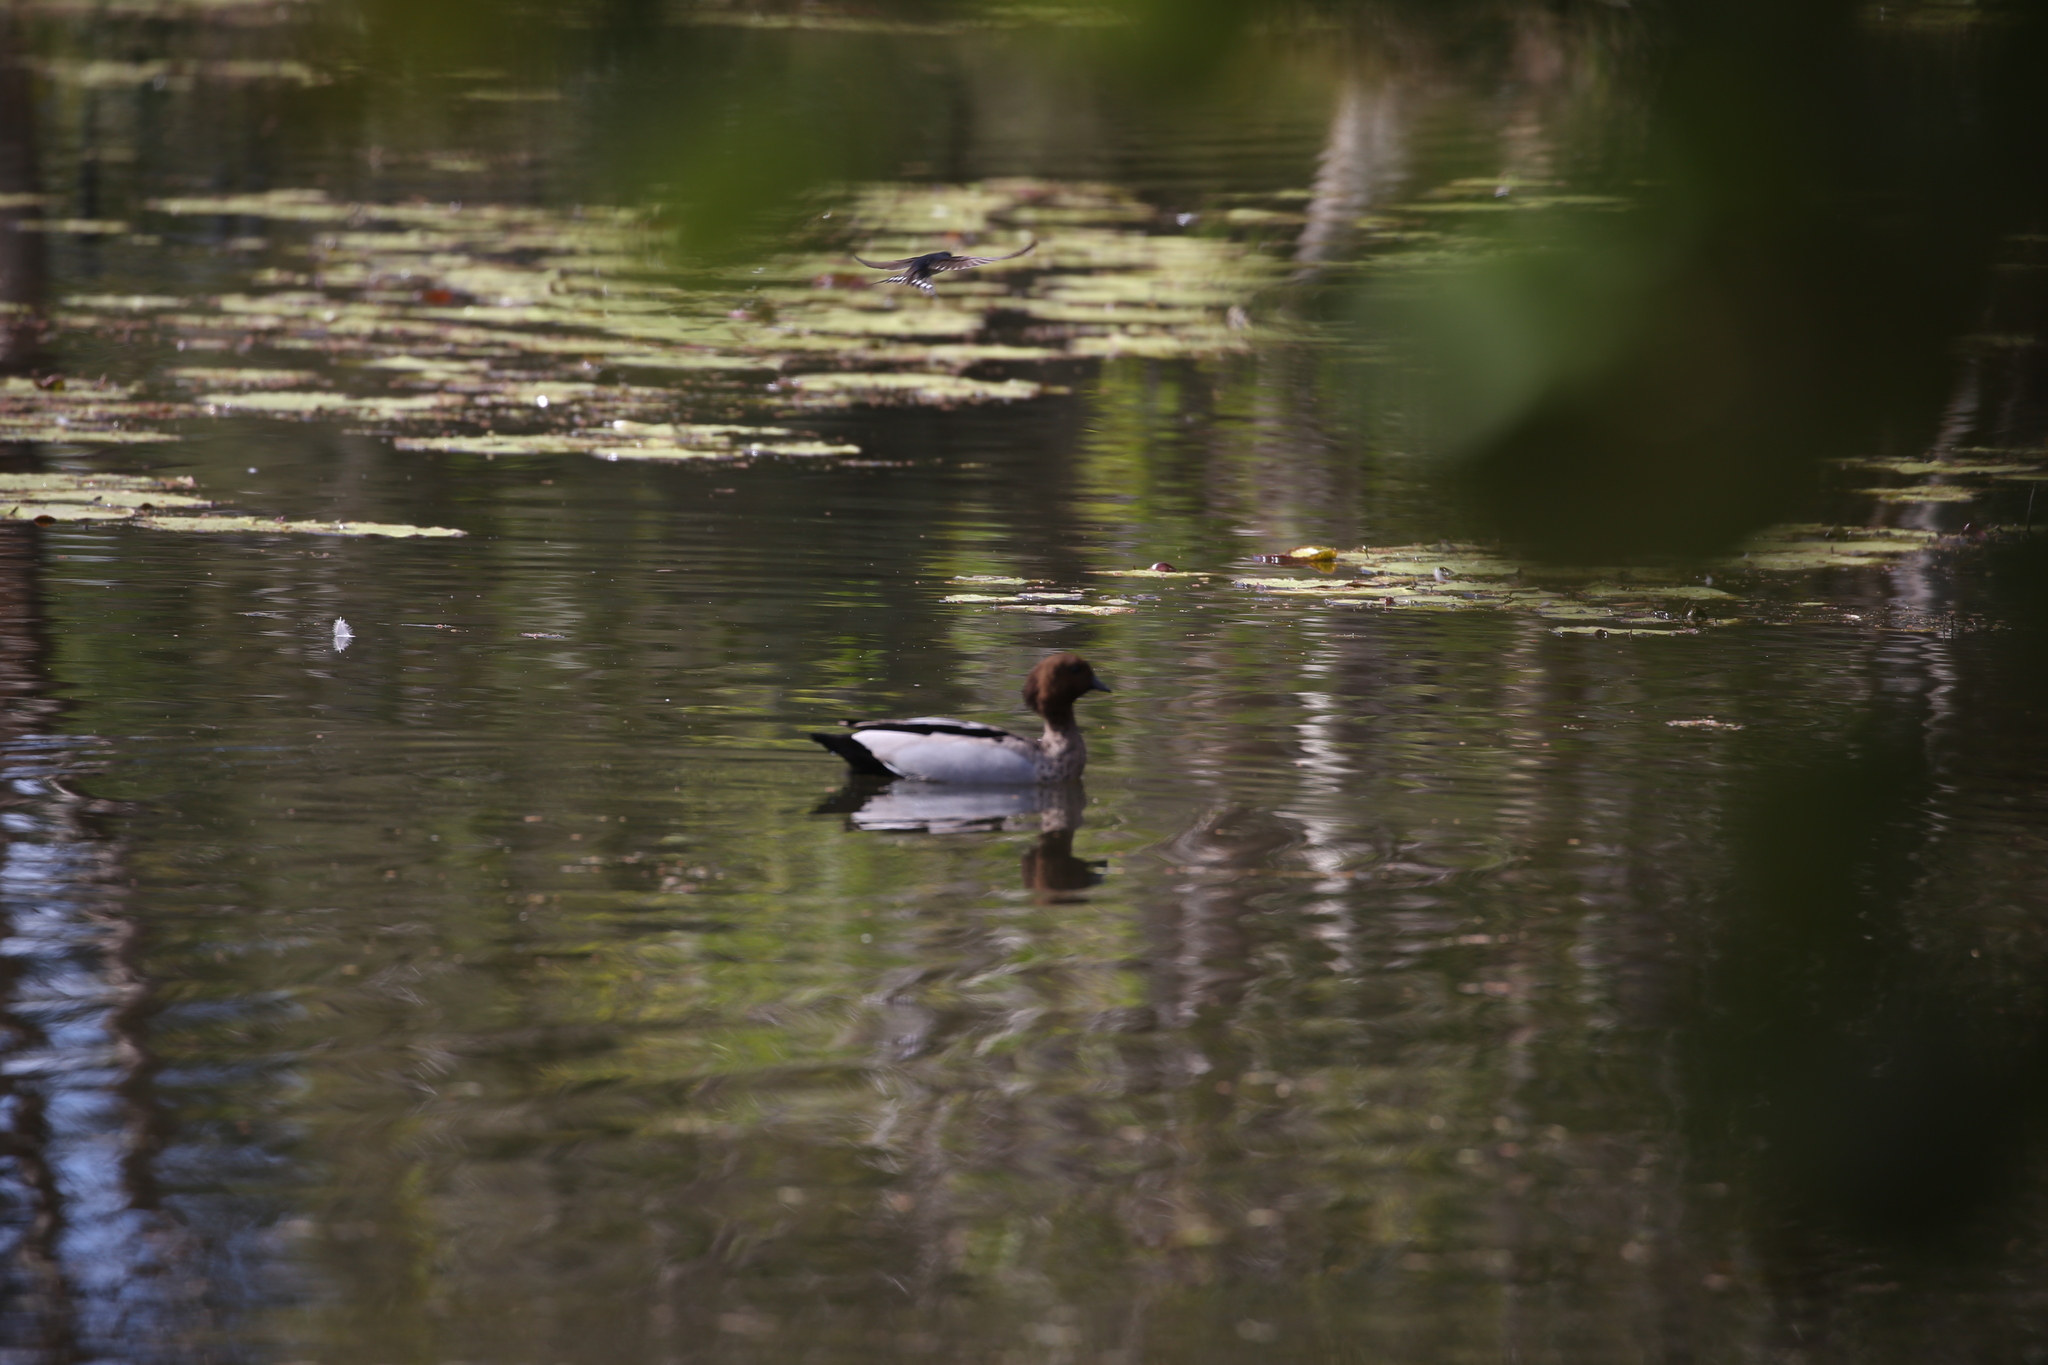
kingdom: Animalia
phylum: Chordata
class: Aves
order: Anseriformes
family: Anatidae
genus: Chenonetta
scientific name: Chenonetta jubata
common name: Maned duck
